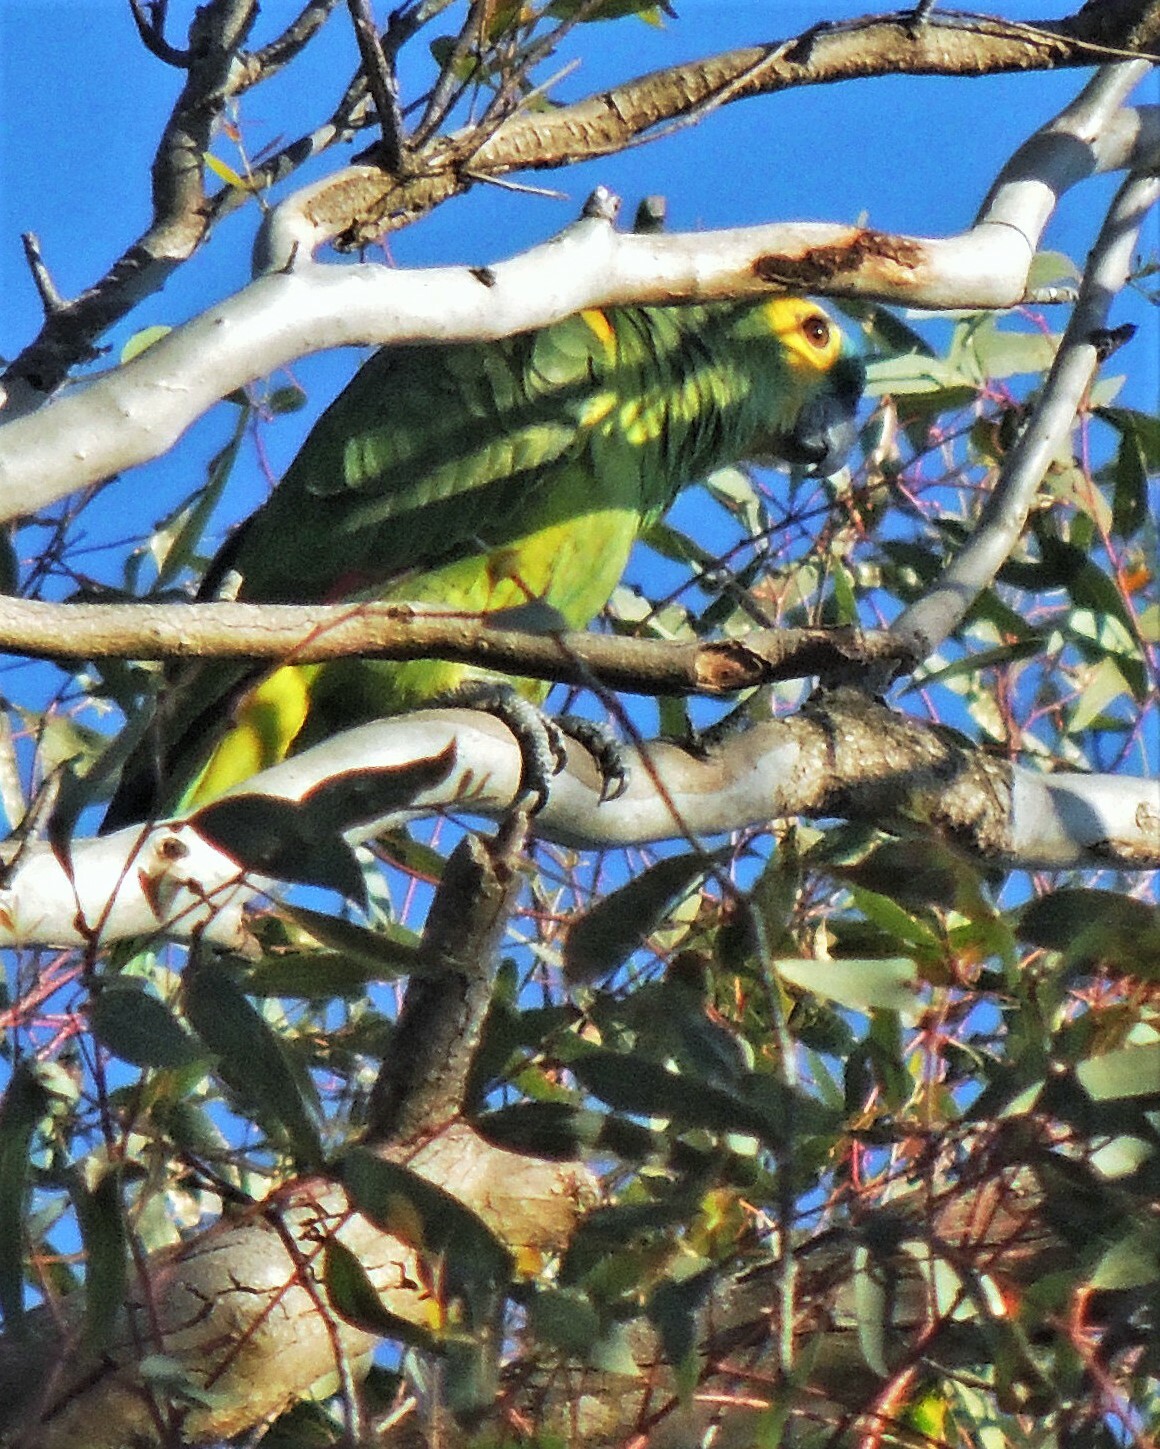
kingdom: Animalia
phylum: Chordata
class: Aves
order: Psittaciformes
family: Psittacidae
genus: Amazona
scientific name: Amazona aestiva
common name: Turquoise-fronted amazon
